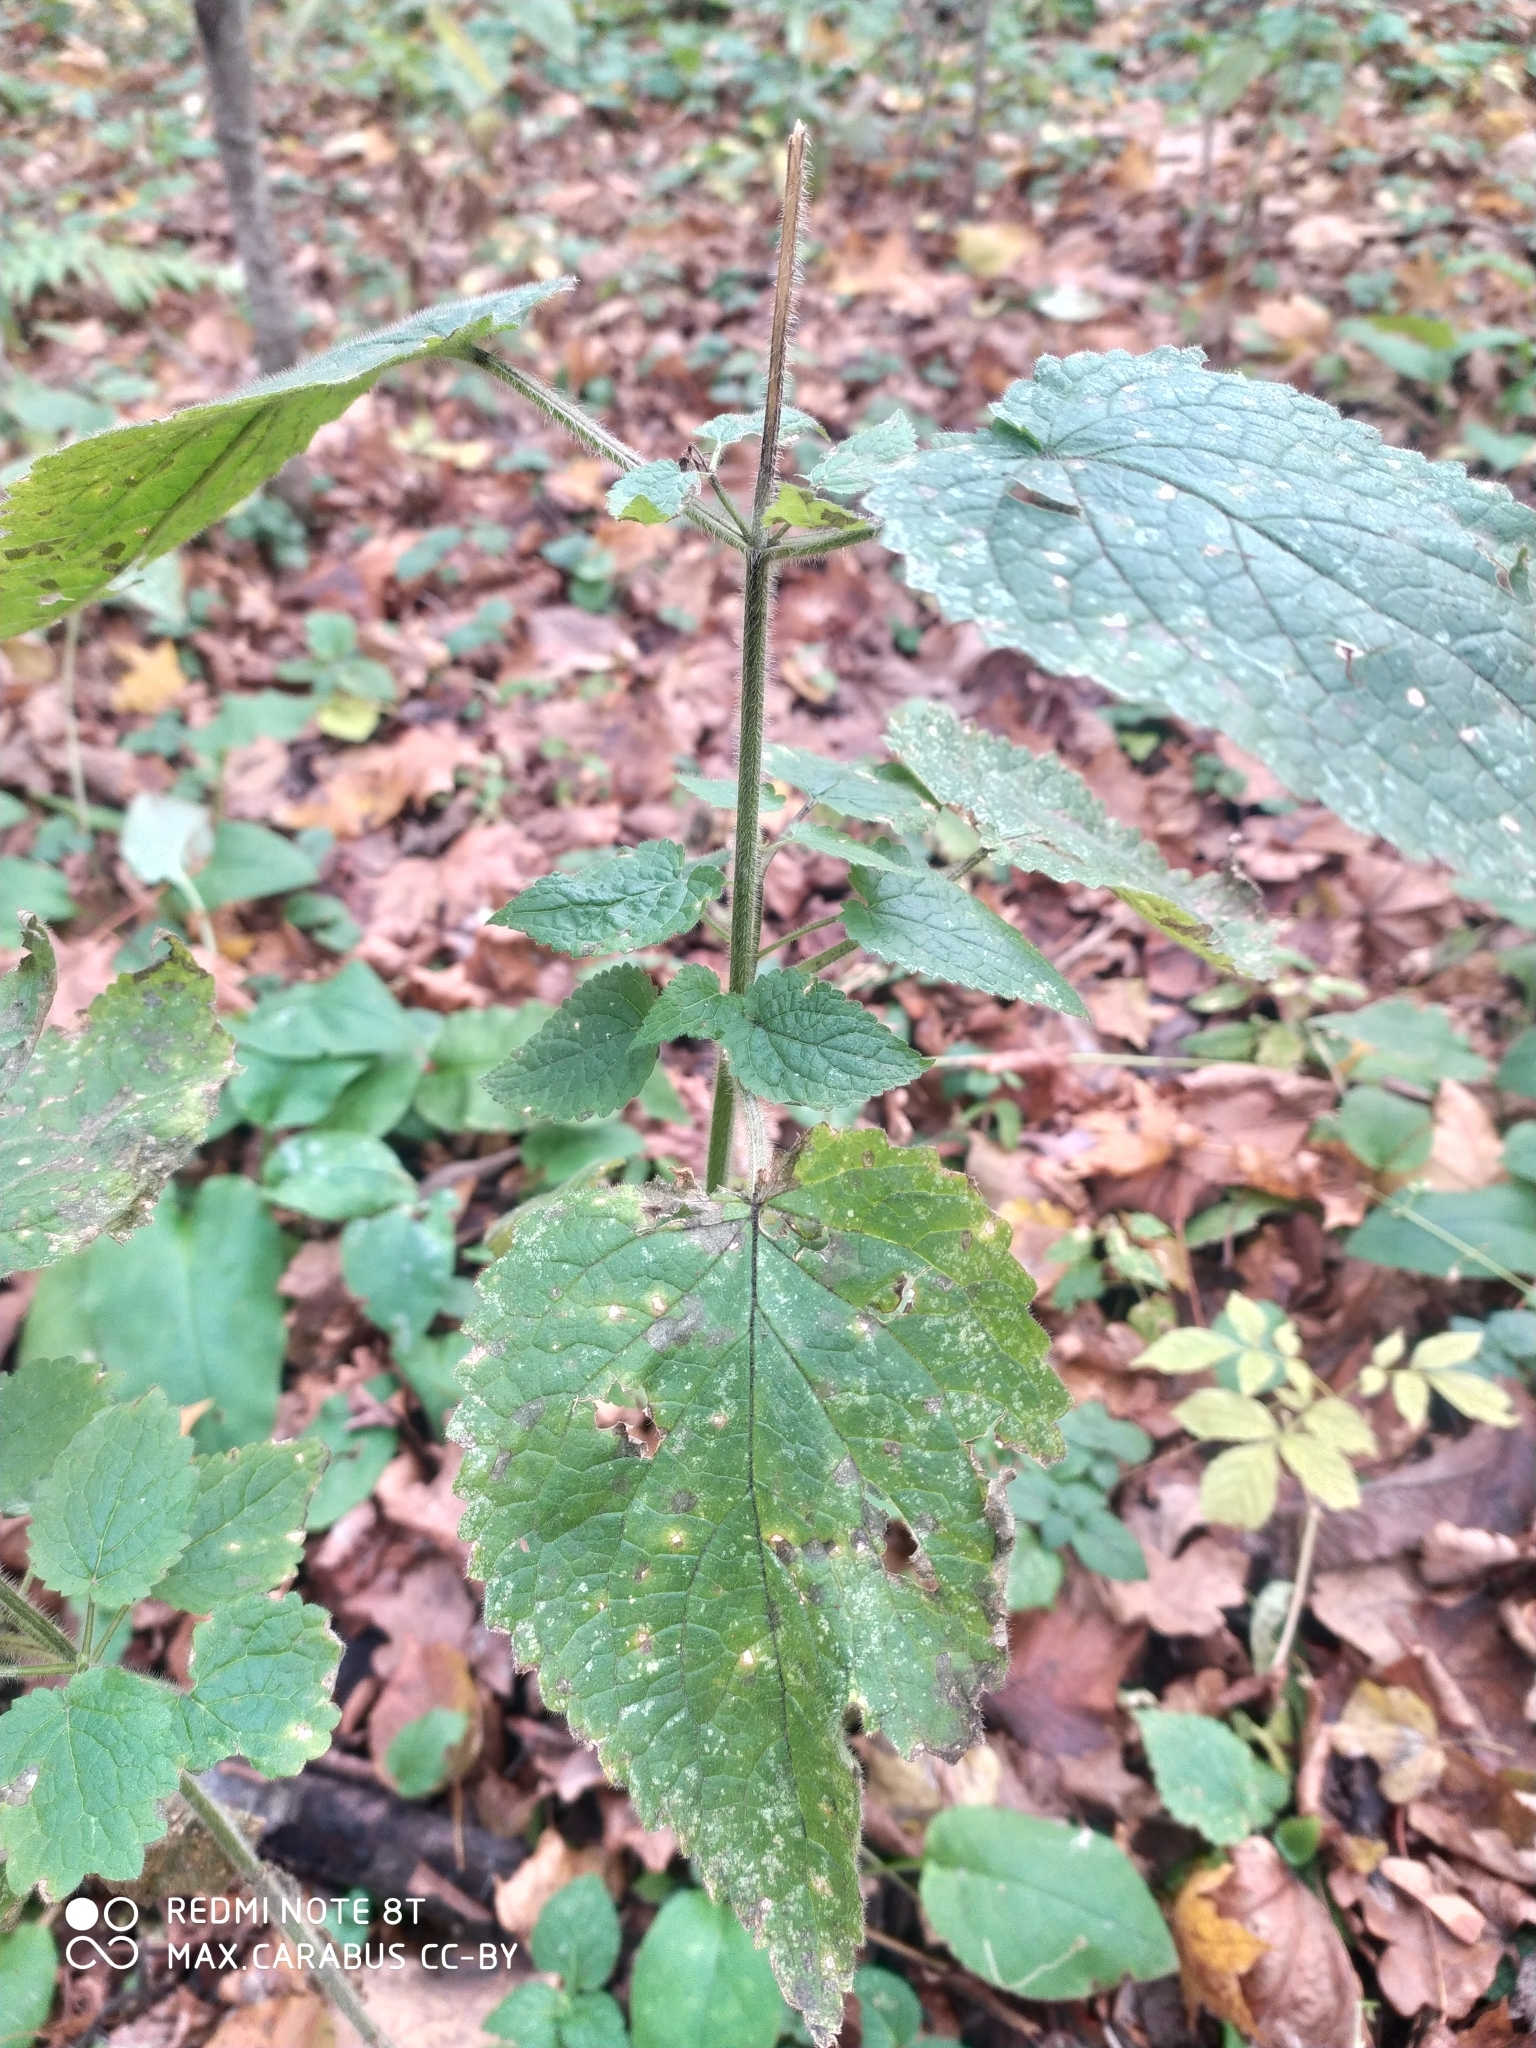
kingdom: Plantae
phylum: Tracheophyta
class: Magnoliopsida
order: Lamiales
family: Lamiaceae
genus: Stachys
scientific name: Stachys sylvatica
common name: Hedge woundwort
